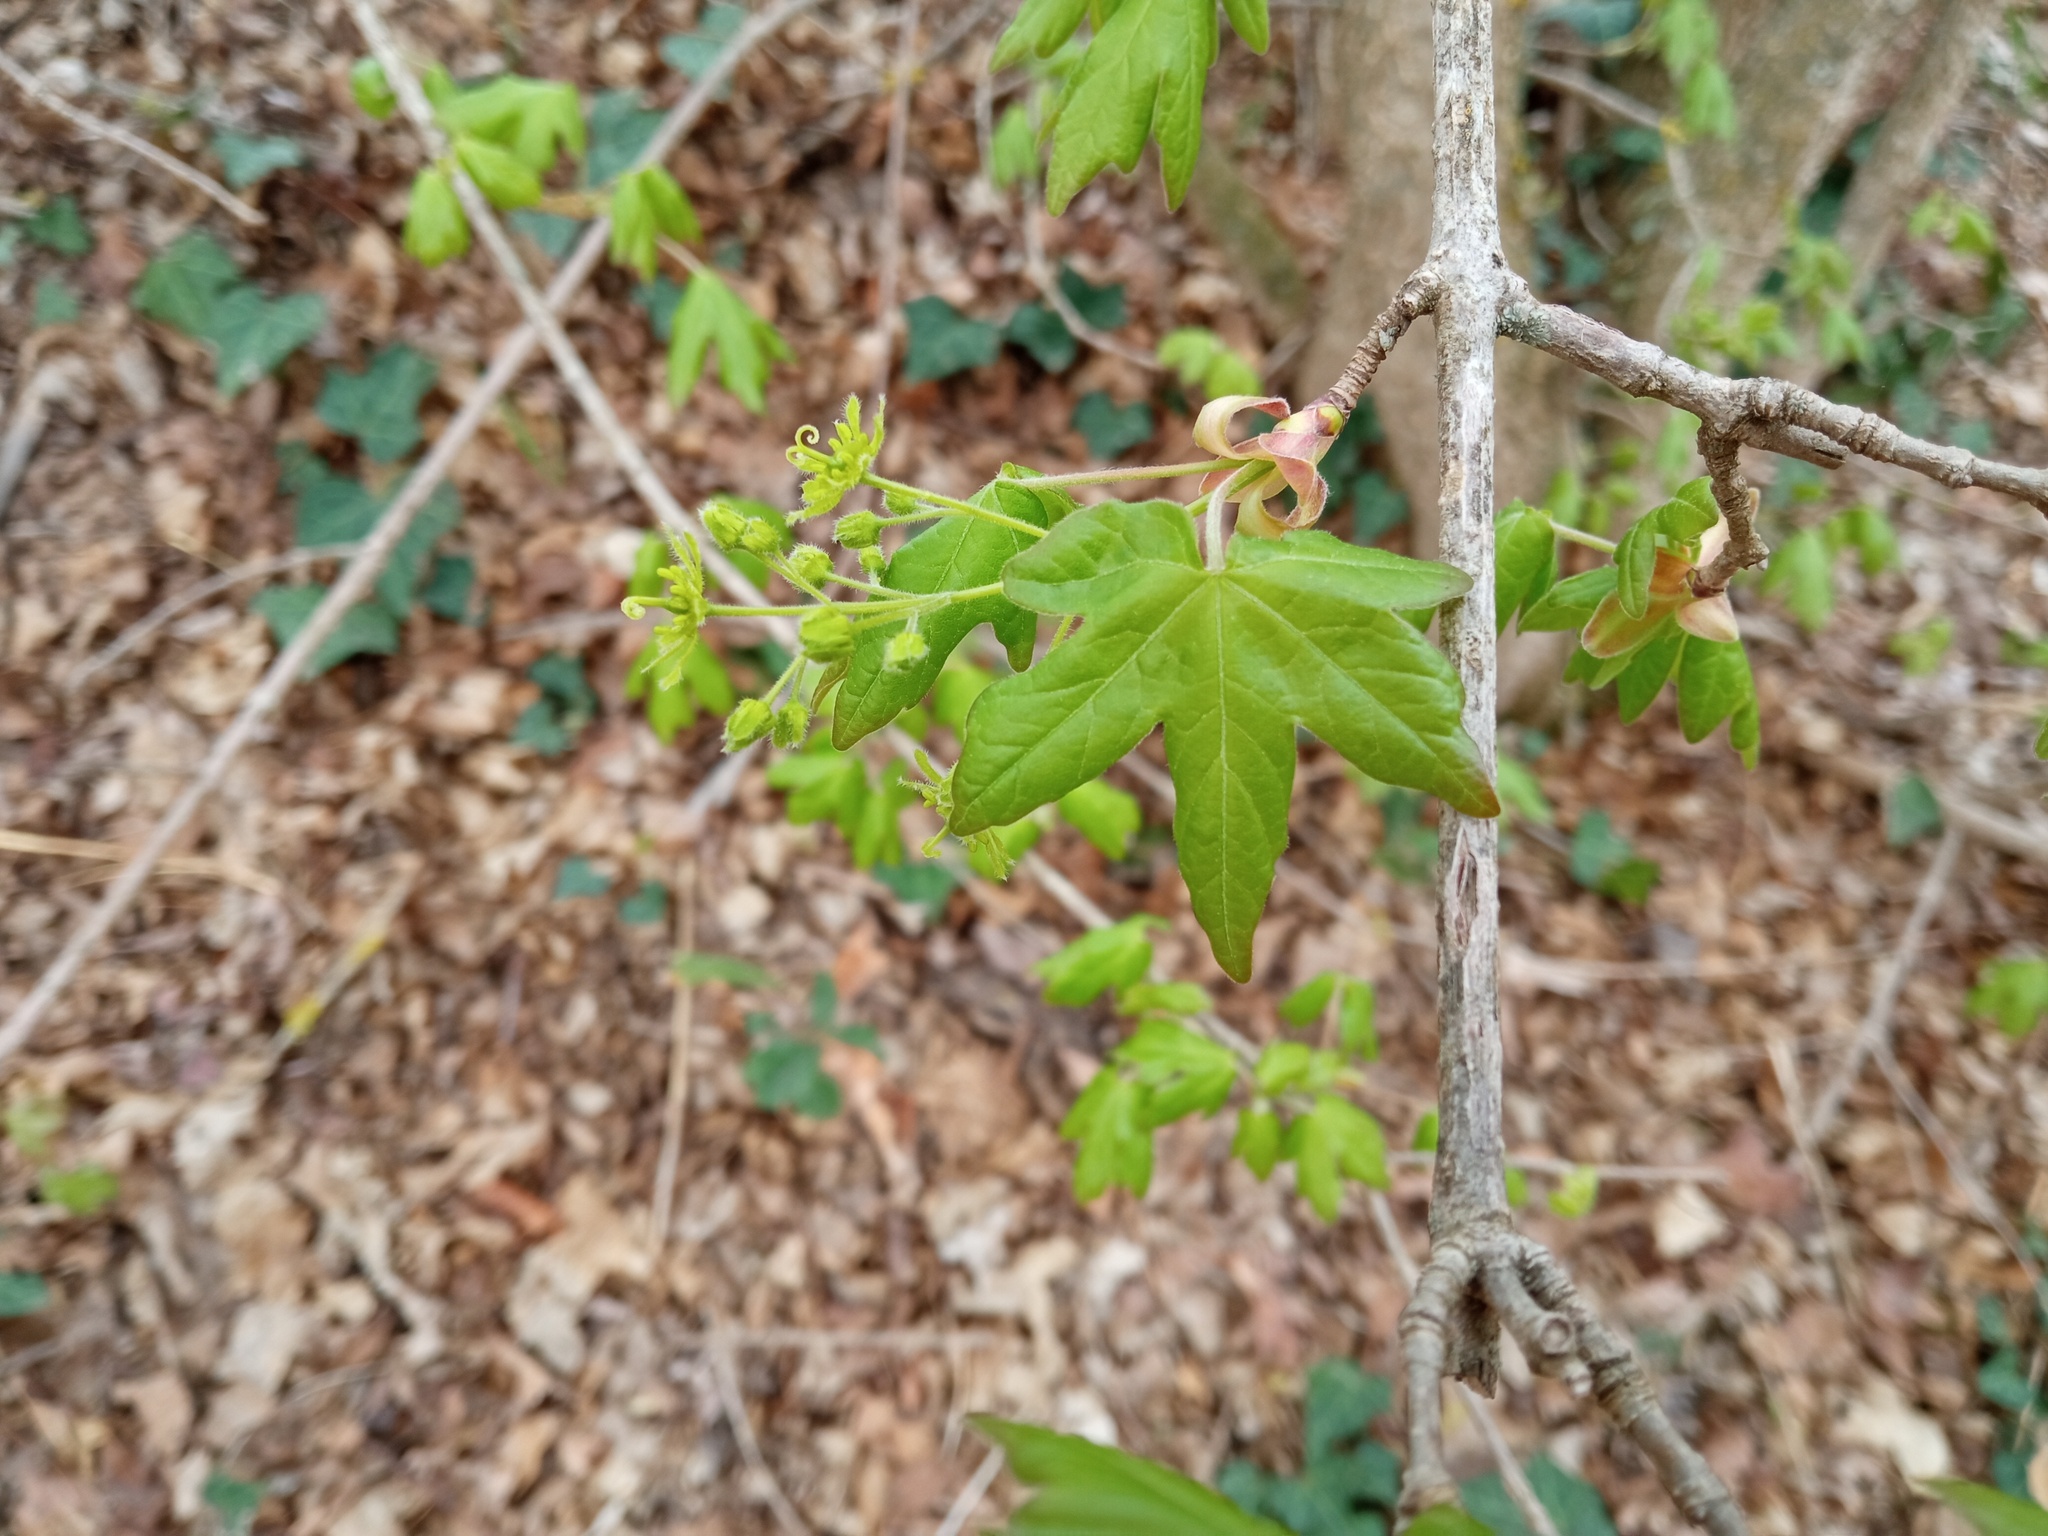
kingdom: Plantae
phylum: Tracheophyta
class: Magnoliopsida
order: Sapindales
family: Sapindaceae
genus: Acer
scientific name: Acer campestre
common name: Field maple
